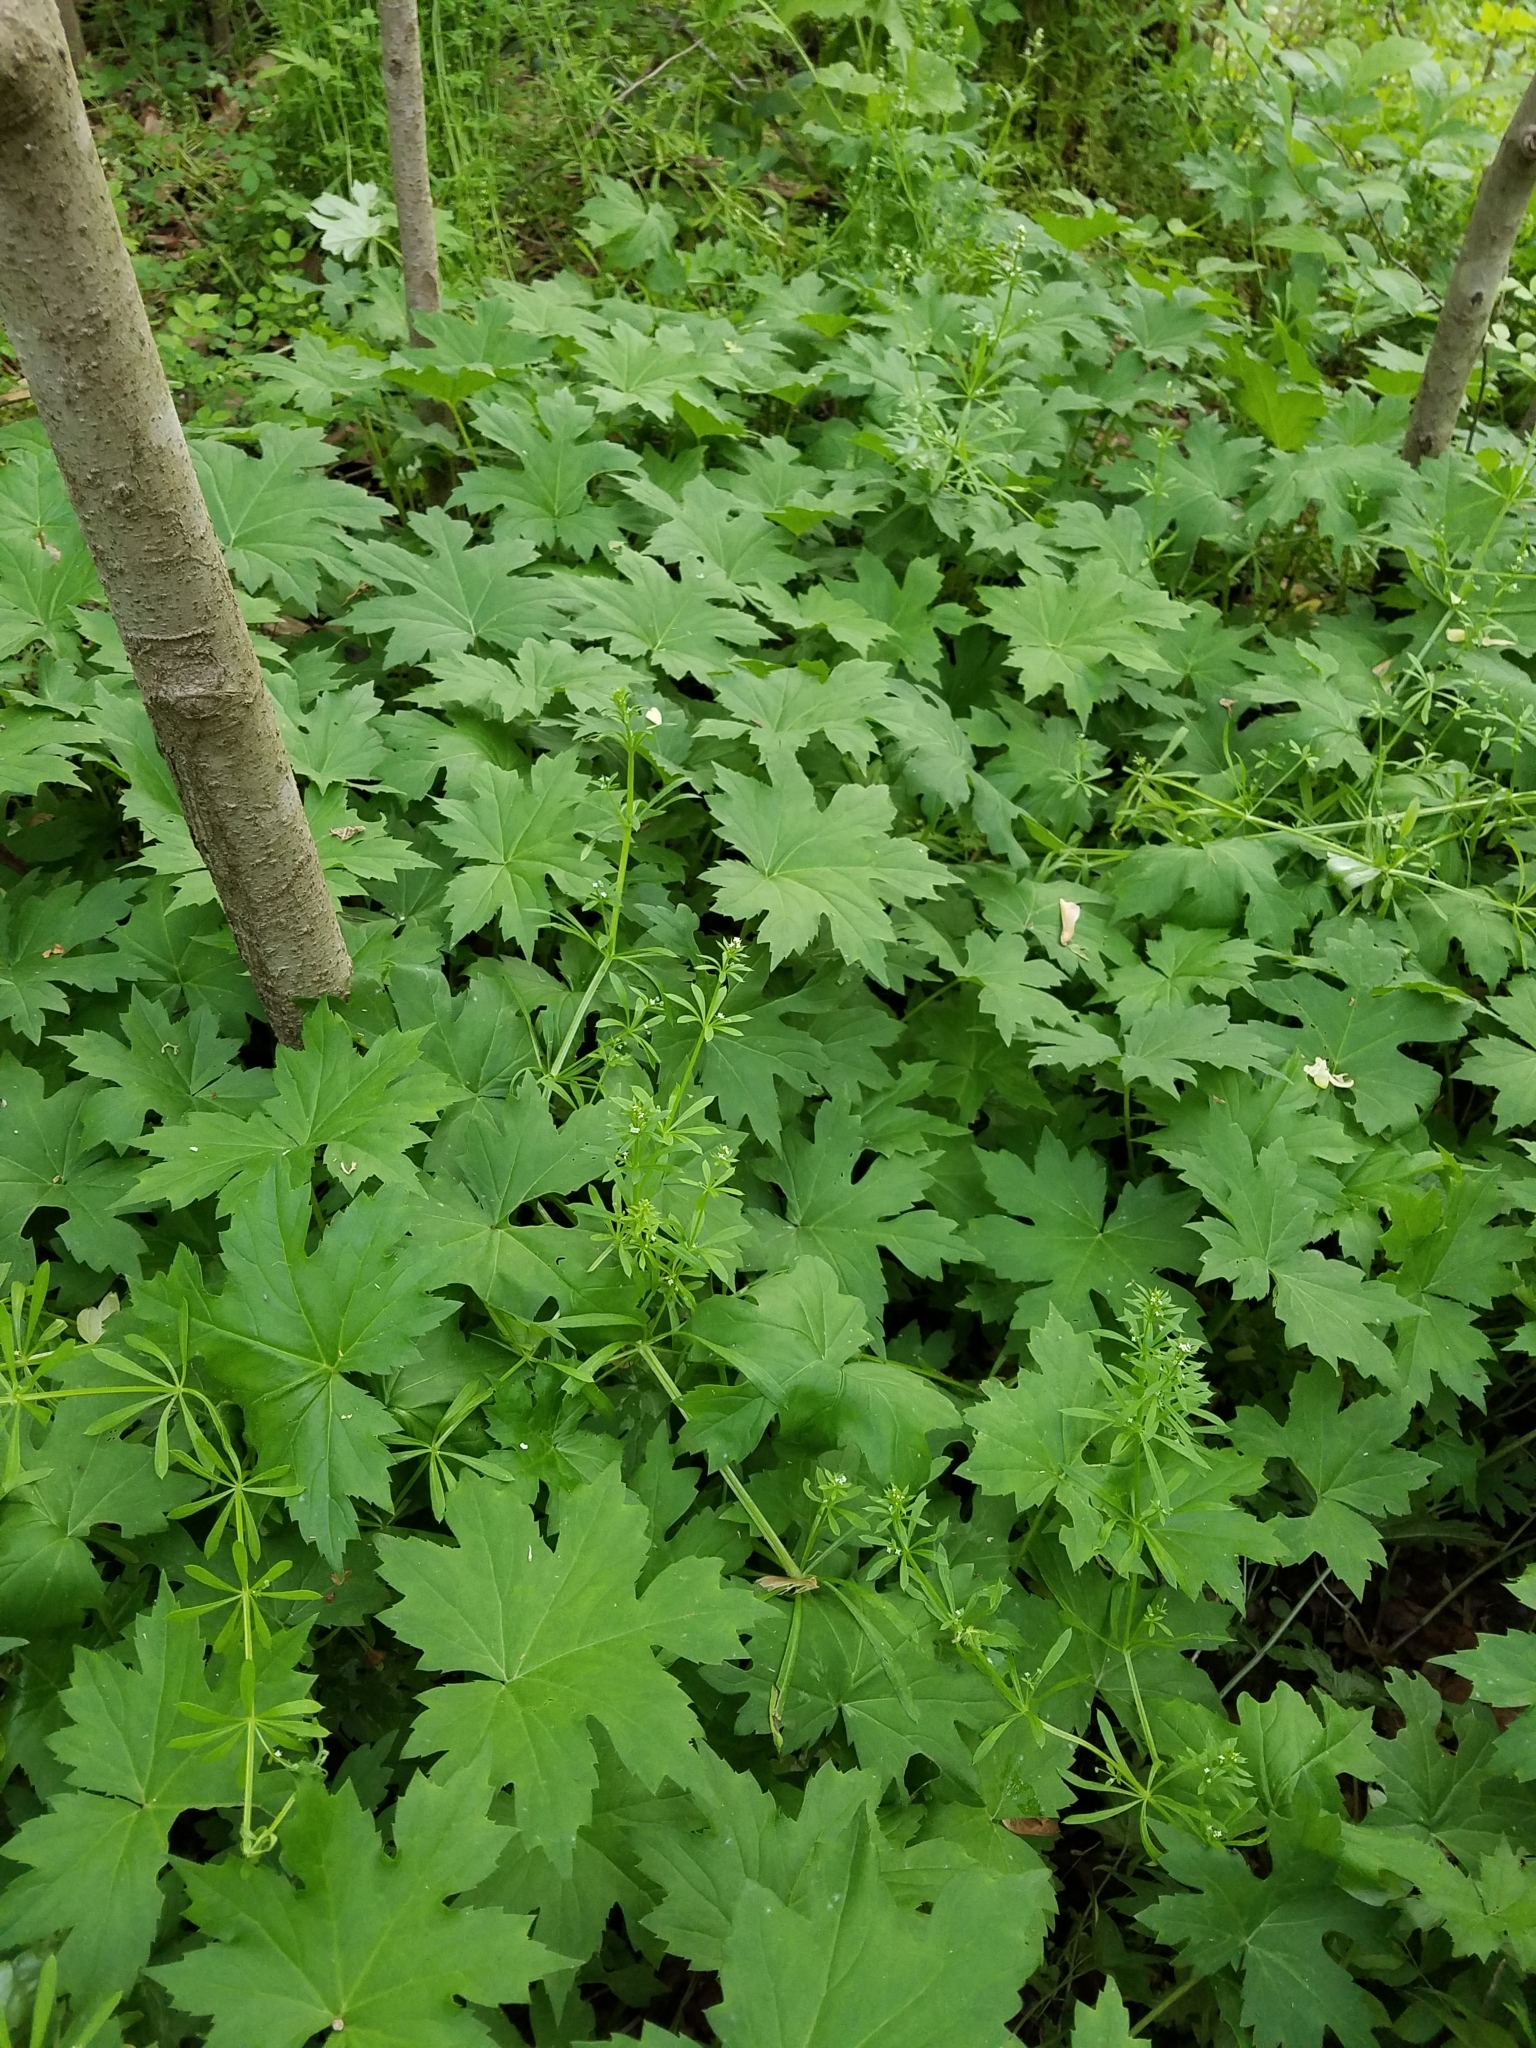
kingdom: Plantae
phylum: Tracheophyta
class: Magnoliopsida
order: Boraginales
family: Hydrophyllaceae
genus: Hydrophyllum
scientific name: Hydrophyllum canadense
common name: Canada waterleaf
